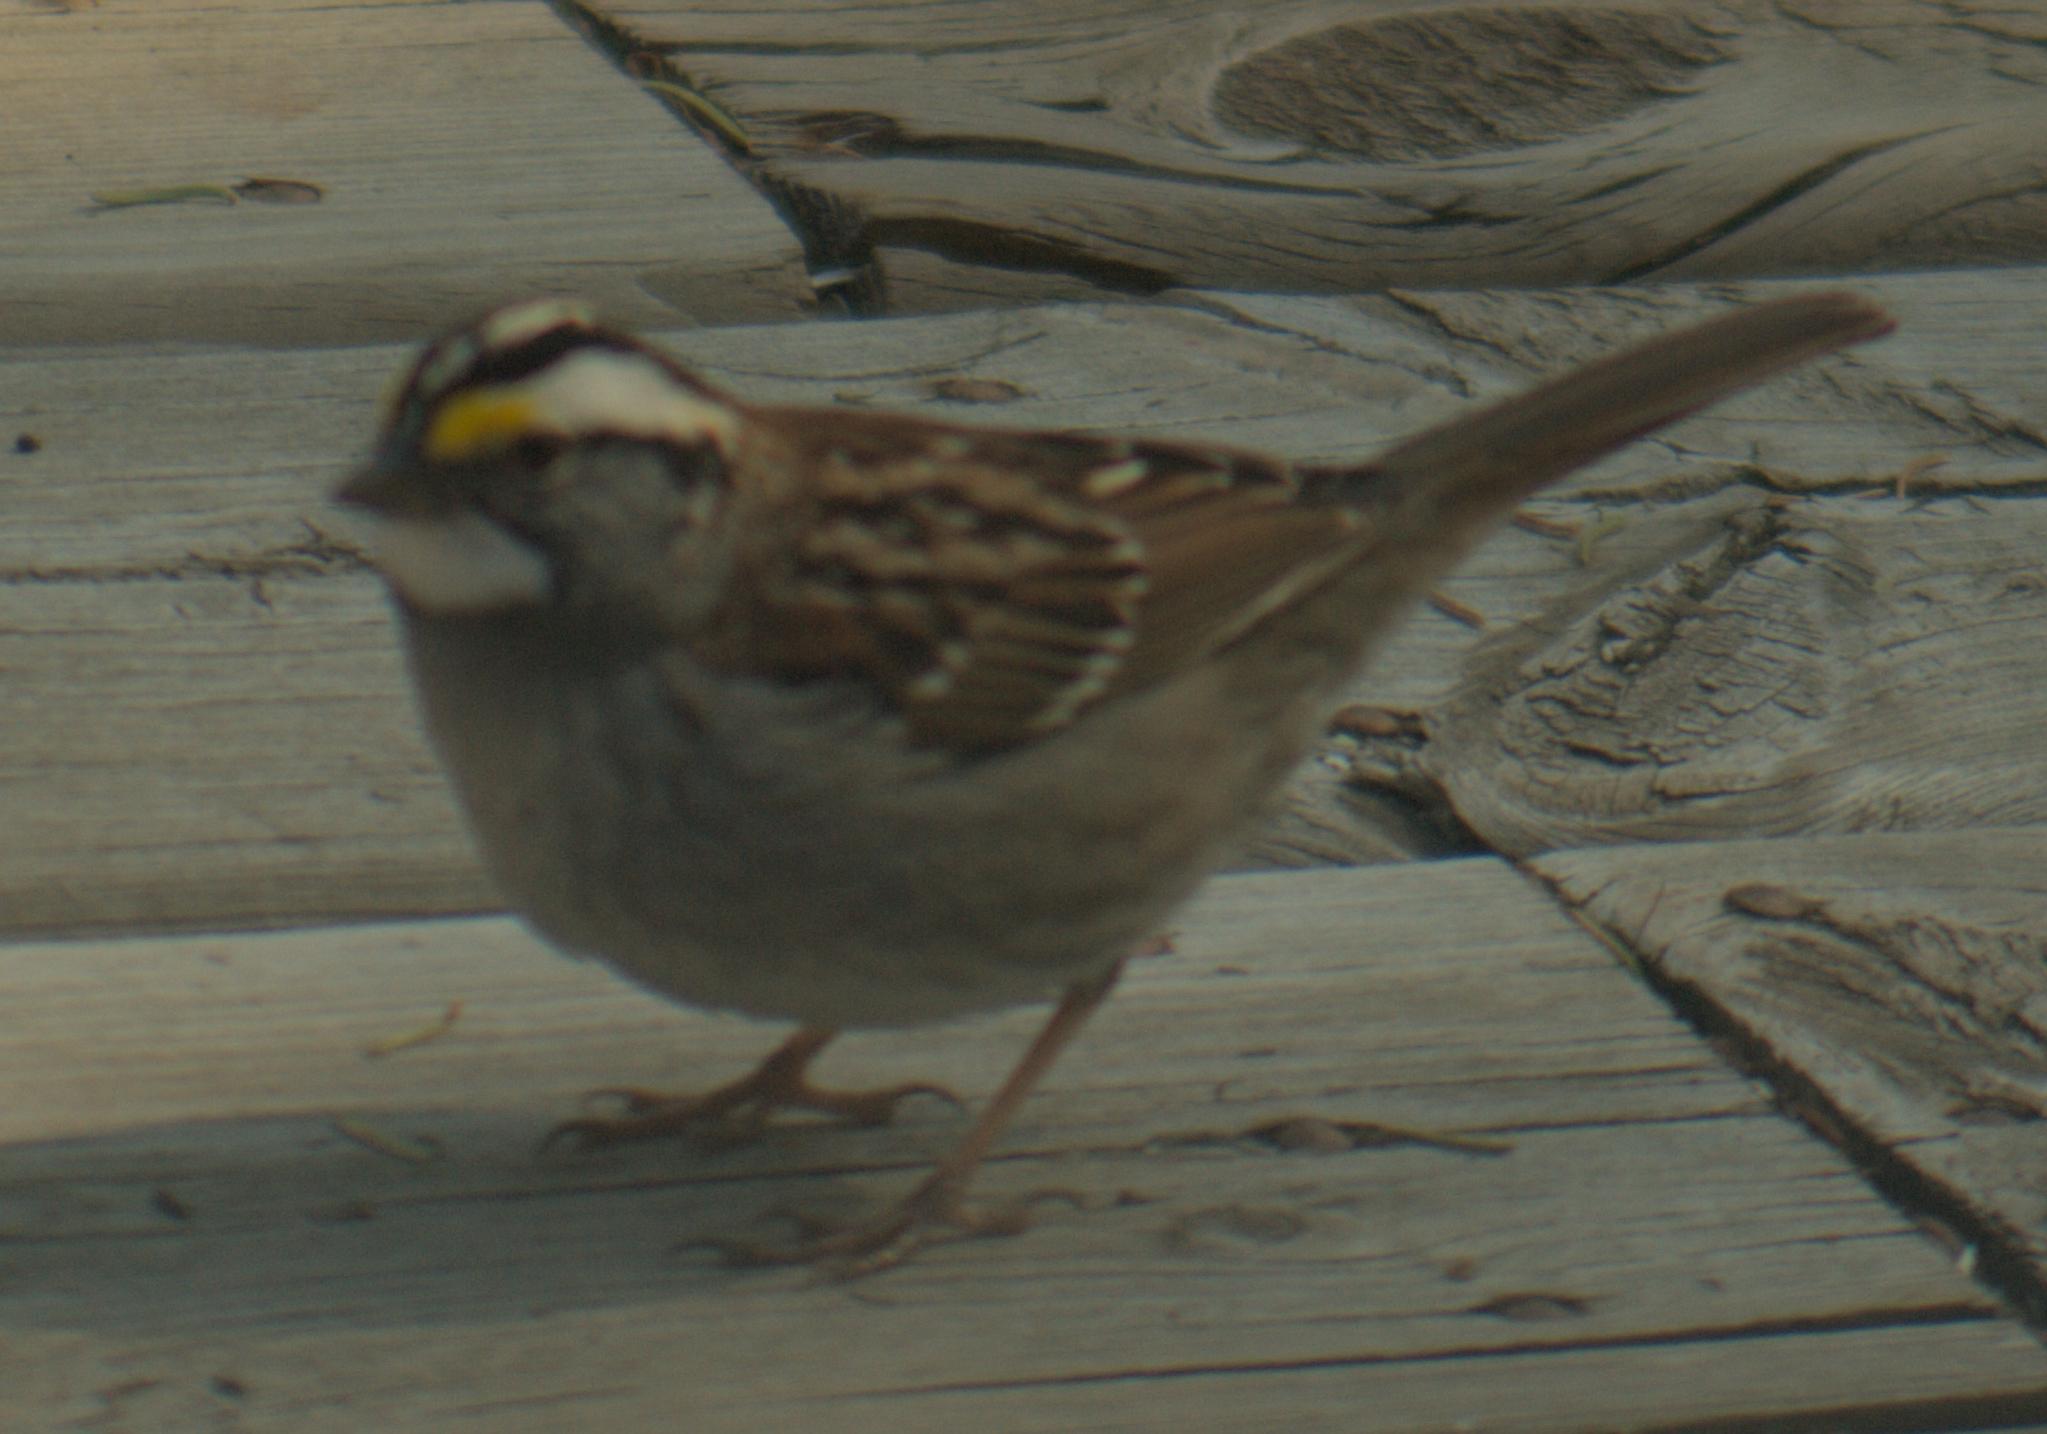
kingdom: Animalia
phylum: Chordata
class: Aves
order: Passeriformes
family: Passerellidae
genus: Zonotrichia
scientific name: Zonotrichia albicollis
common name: White-throated sparrow
